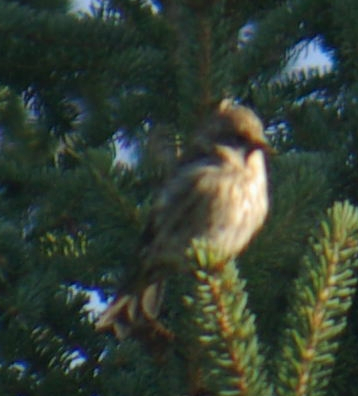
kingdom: Animalia
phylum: Chordata
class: Aves
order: Passeriformes
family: Fringillidae
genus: Spinus
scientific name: Spinus pinus
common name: Pine siskin
